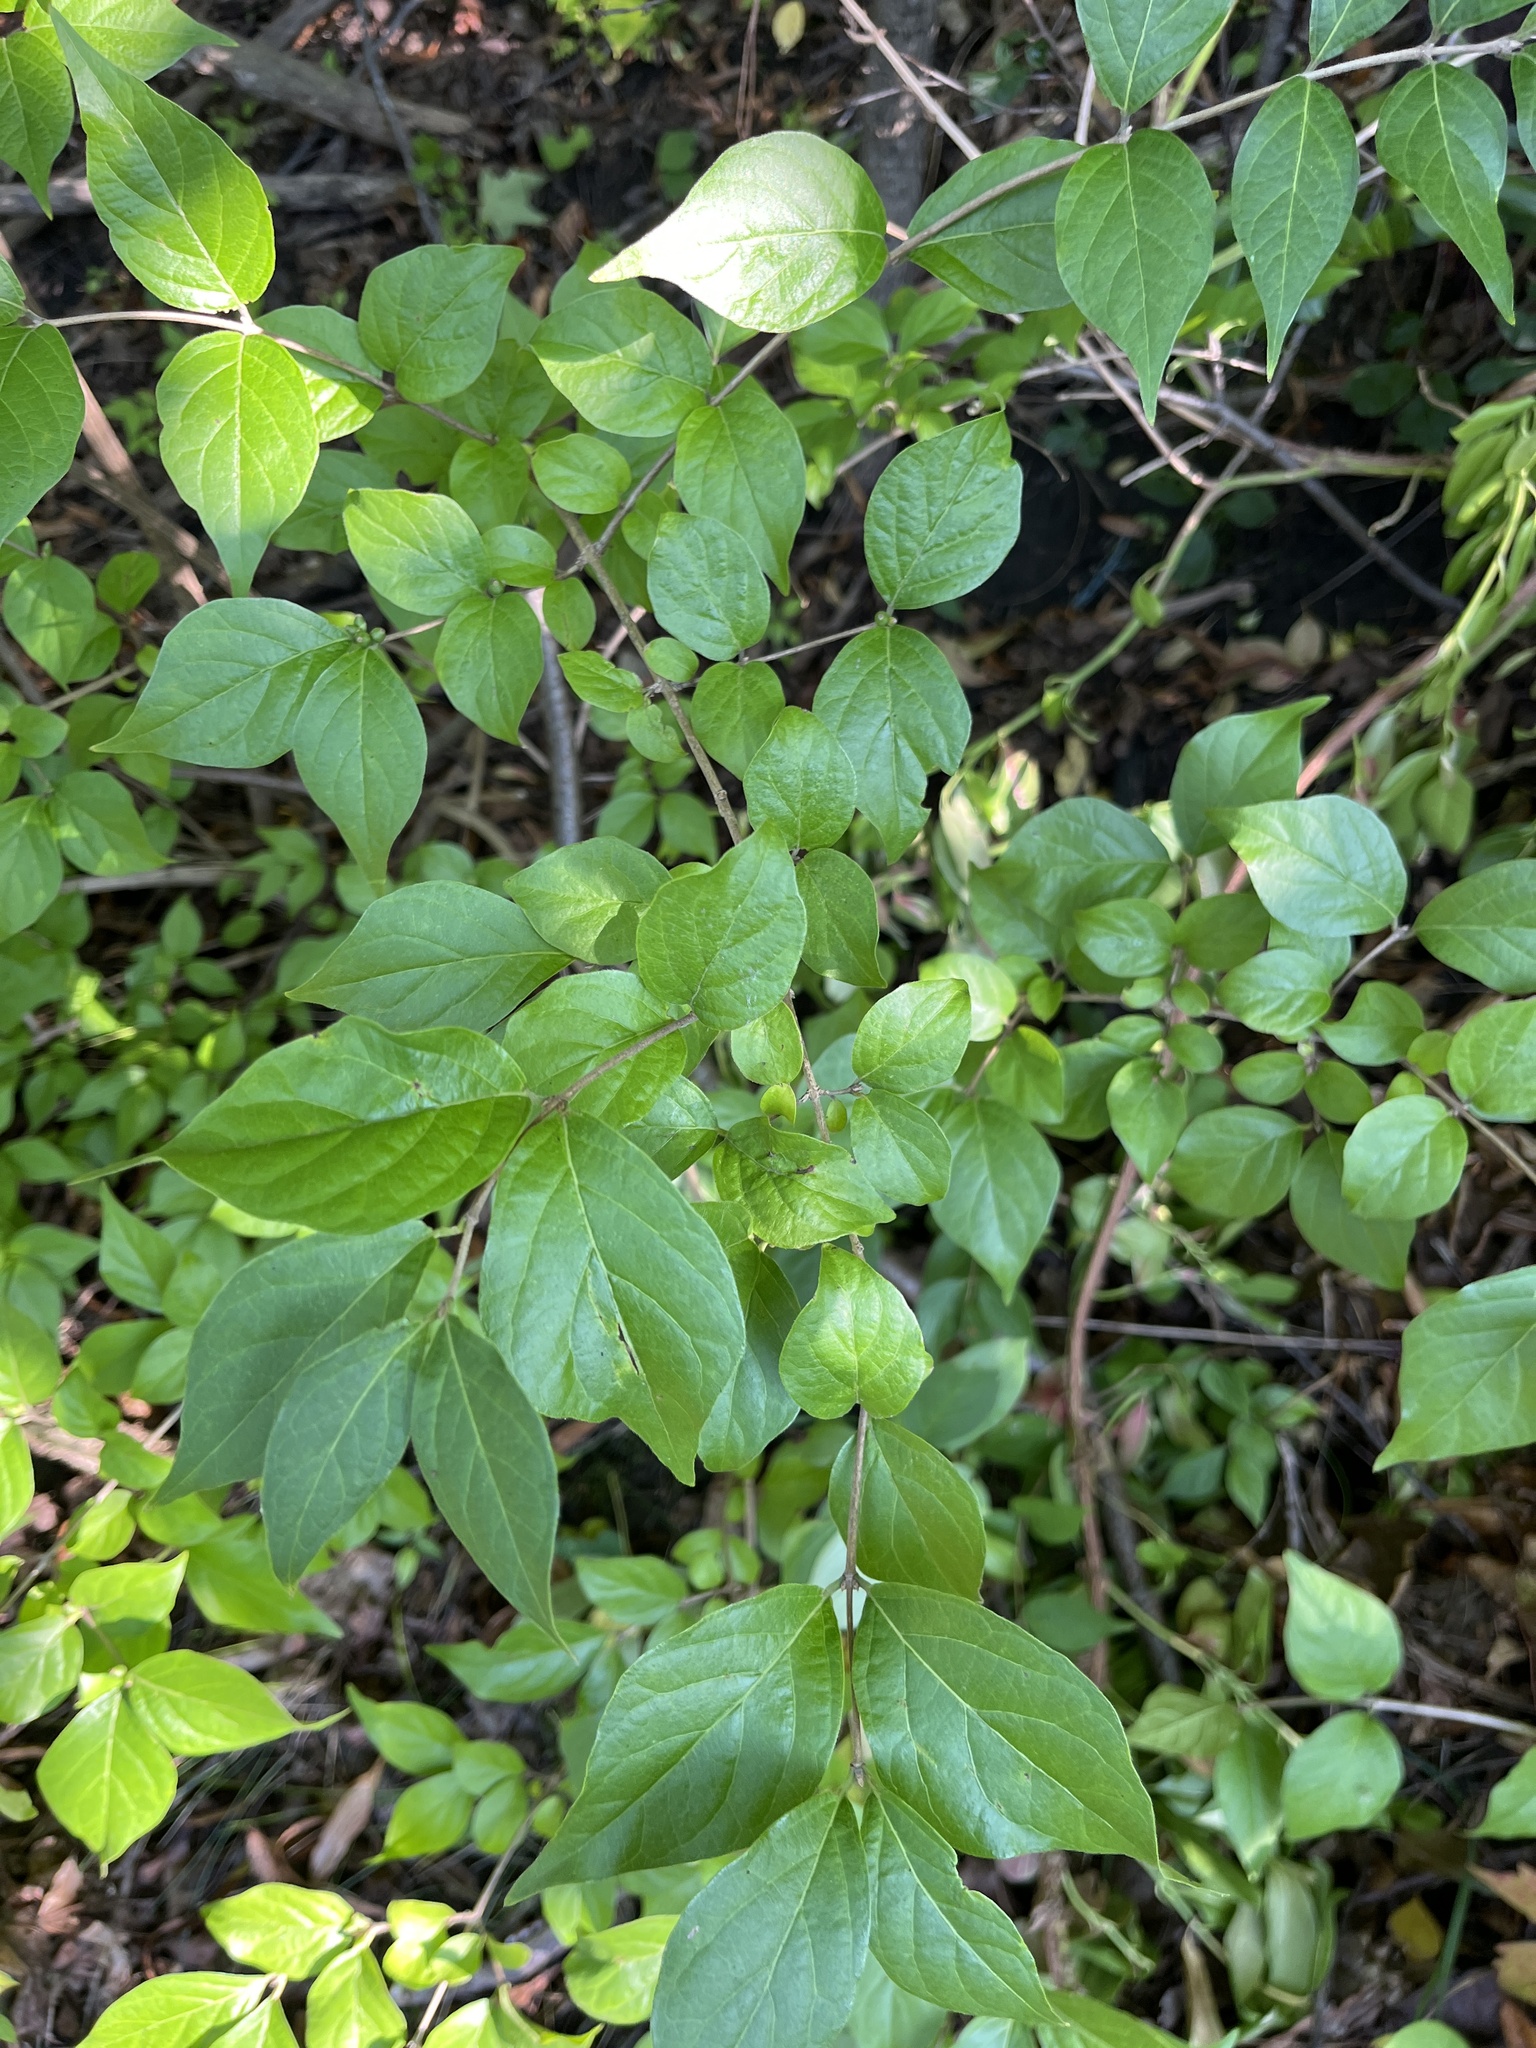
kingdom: Plantae
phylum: Tracheophyta
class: Magnoliopsida
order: Dipsacales
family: Caprifoliaceae
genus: Lonicera
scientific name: Lonicera maackii
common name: Amur honeysuckle
